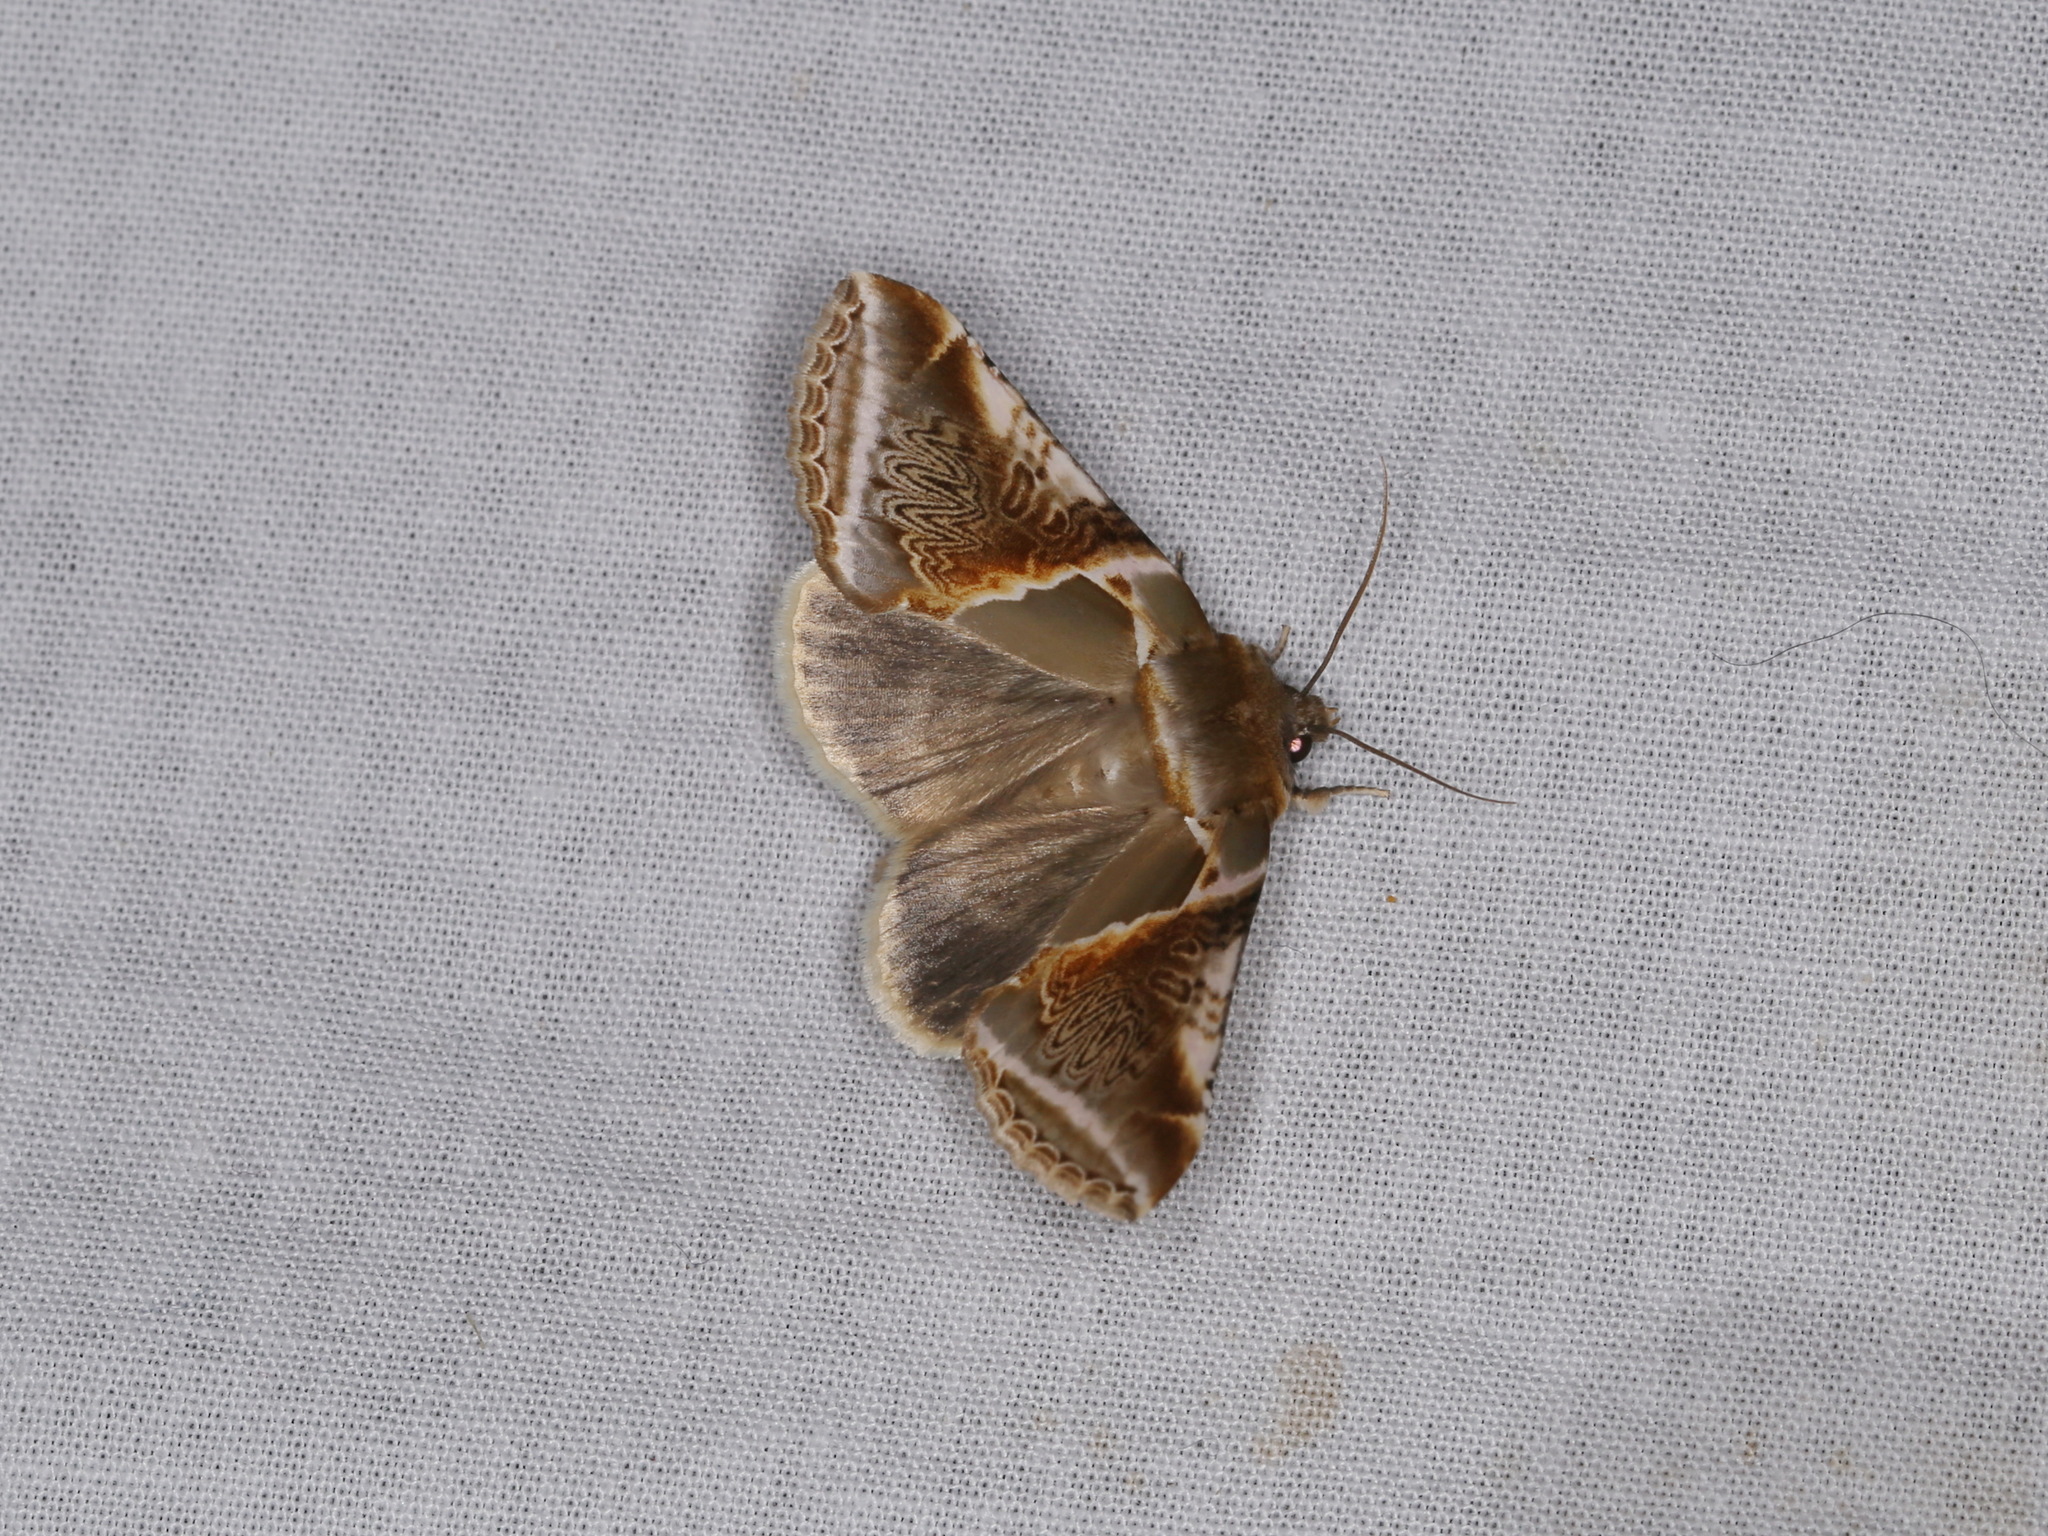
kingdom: Animalia
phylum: Arthropoda
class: Insecta
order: Lepidoptera
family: Drepanidae
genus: Habrosyne
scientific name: Habrosyne pyritoides
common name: Buff arches
